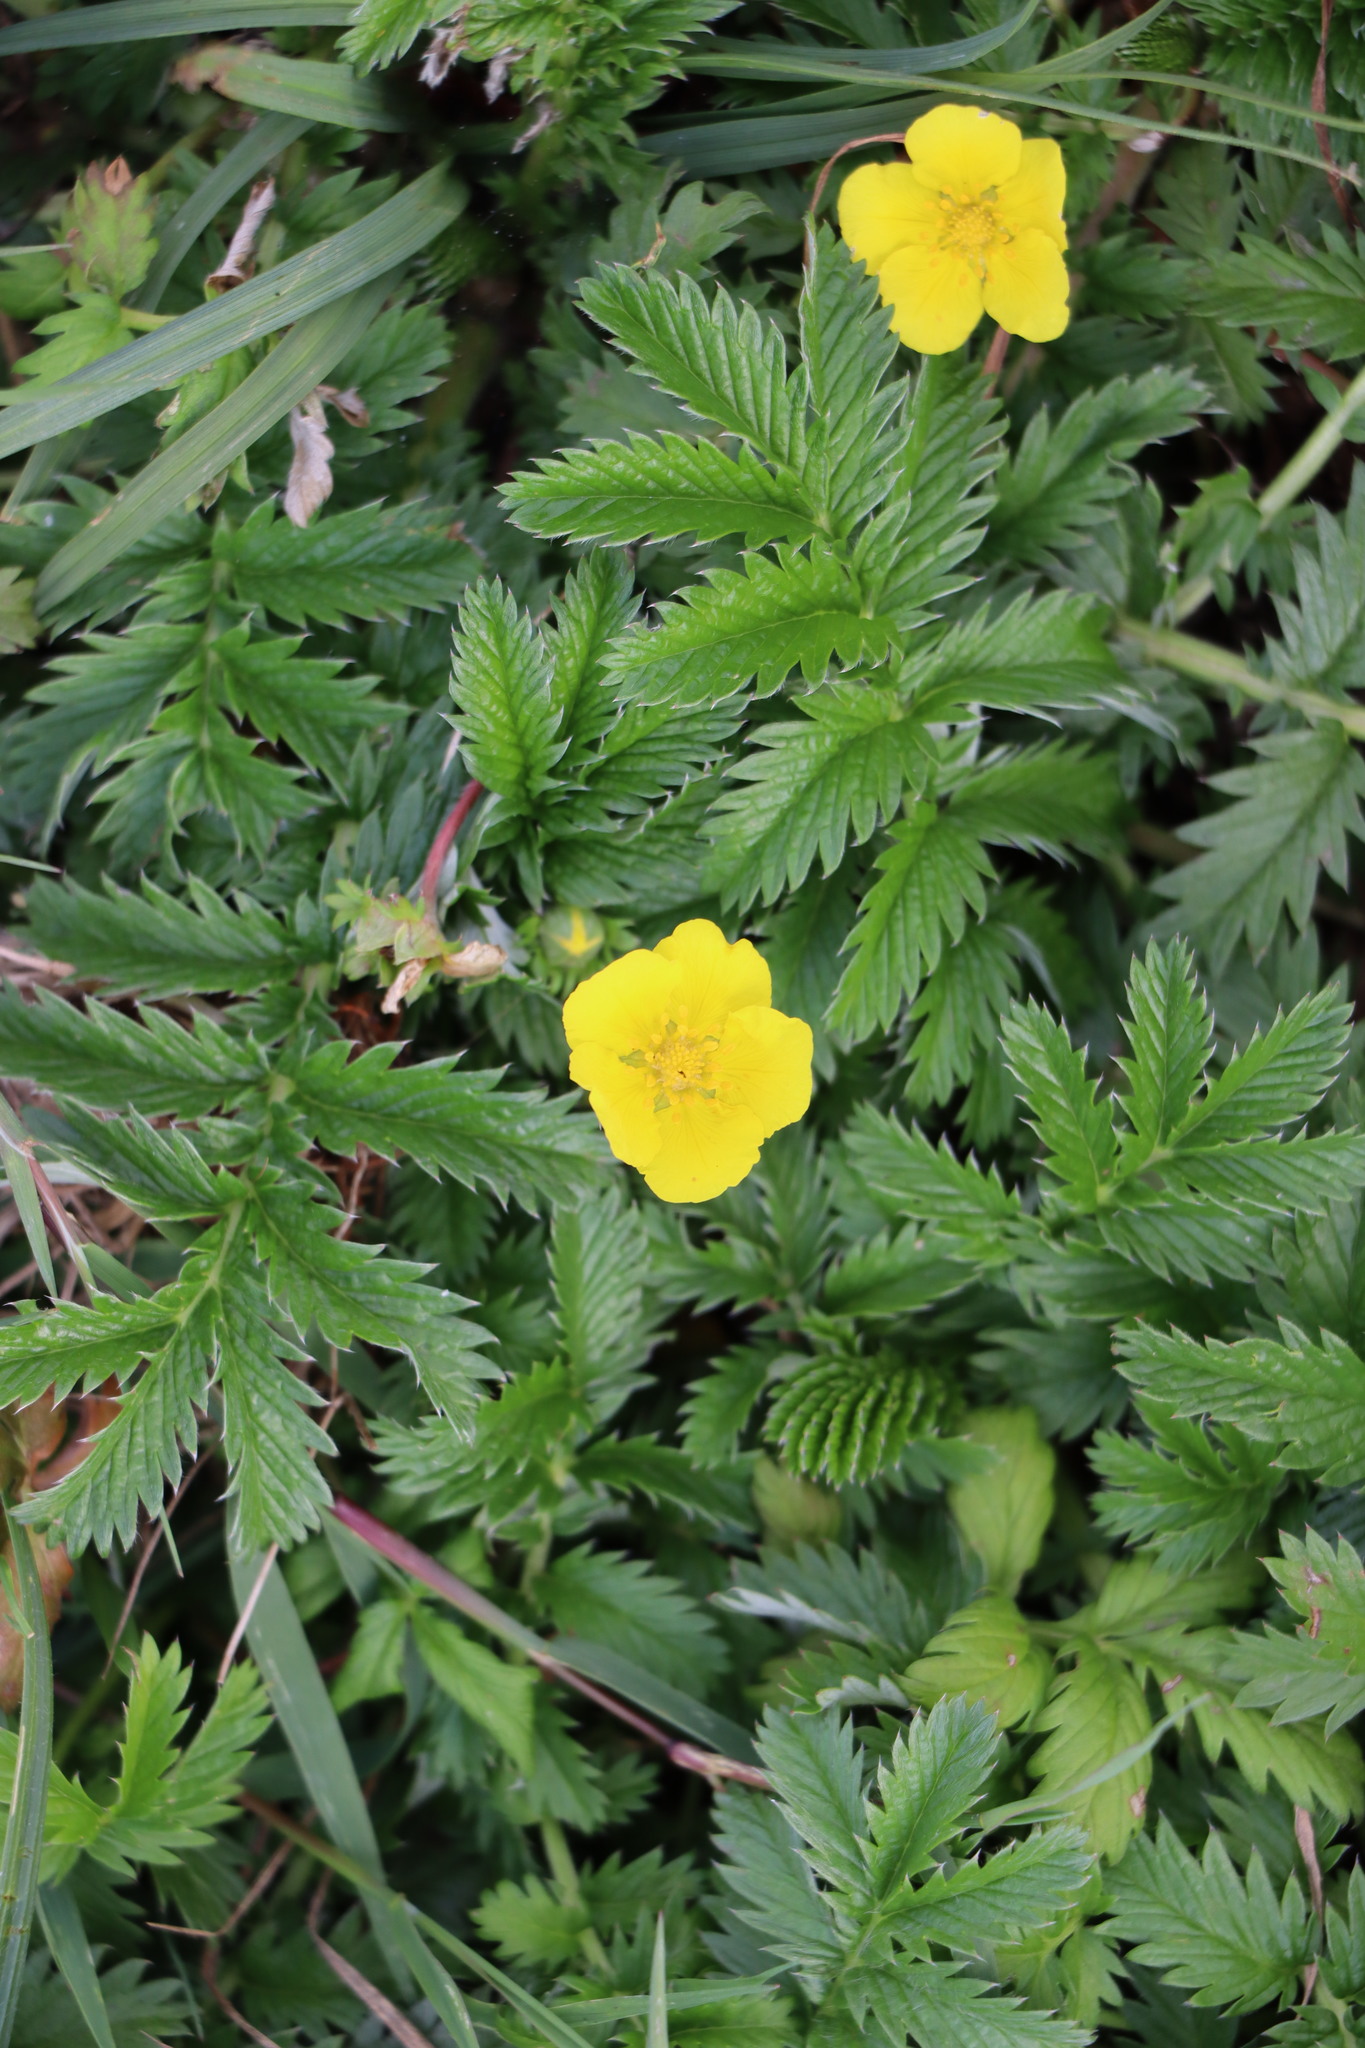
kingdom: Plantae
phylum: Tracheophyta
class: Magnoliopsida
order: Rosales
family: Rosaceae
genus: Argentina
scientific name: Argentina anserina
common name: Common silverweed
